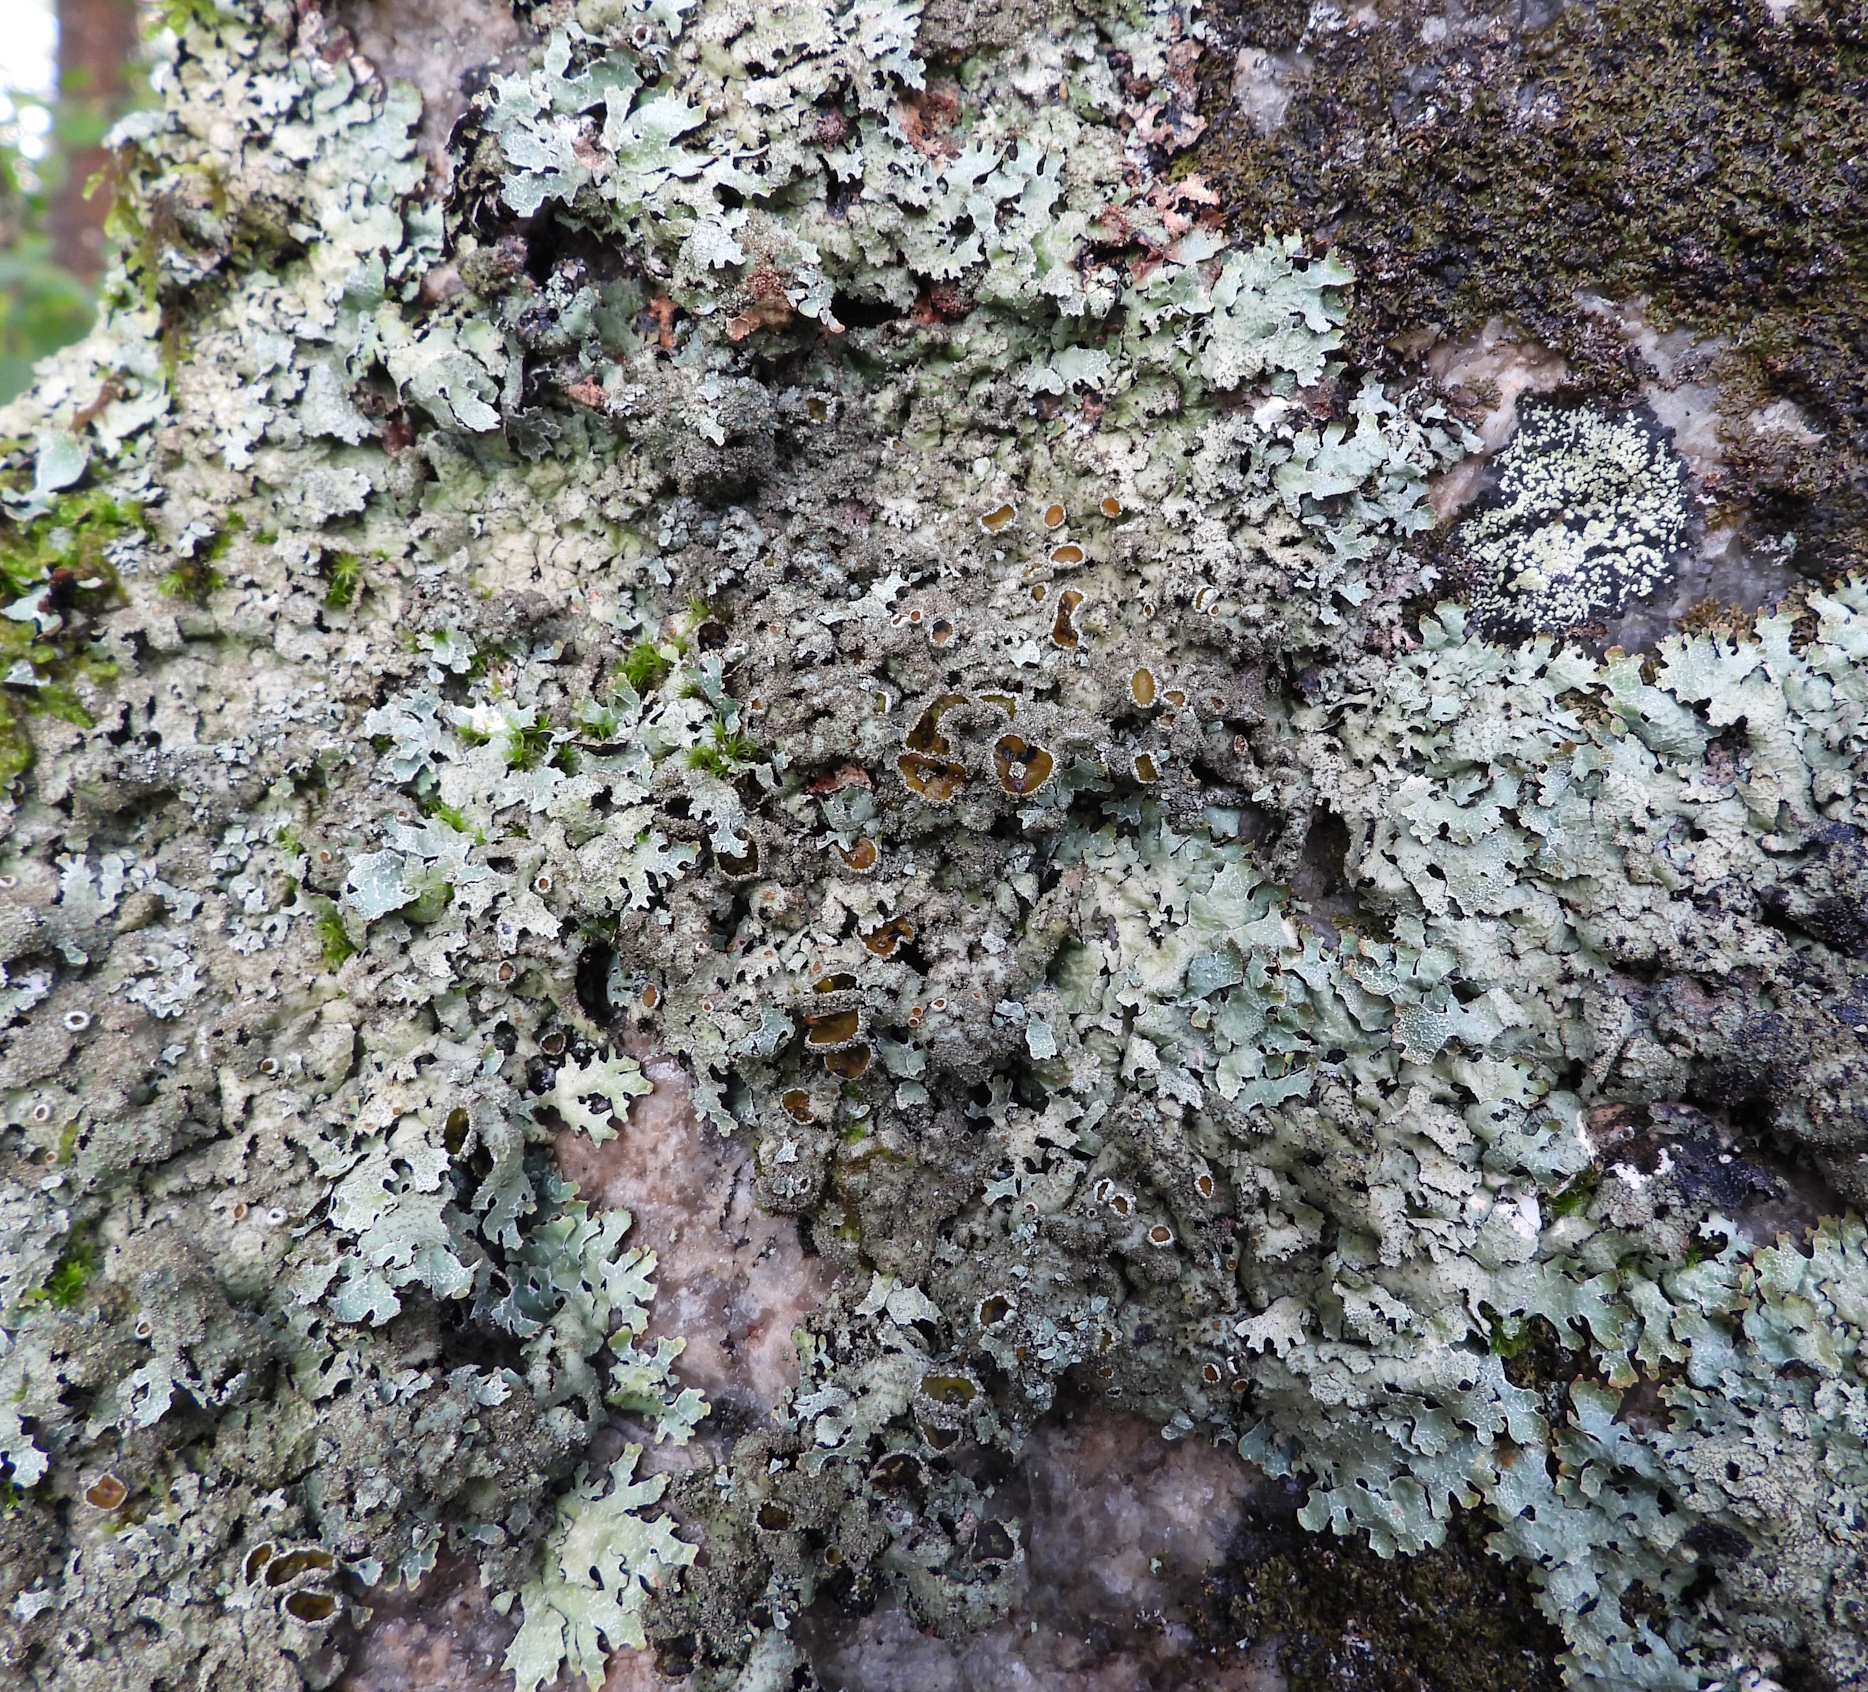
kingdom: Fungi
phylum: Ascomycota
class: Lecanoromycetes
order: Lecanorales
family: Parmeliaceae
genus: Parmelia
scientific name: Parmelia saxatilis
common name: Salted shield lichen
